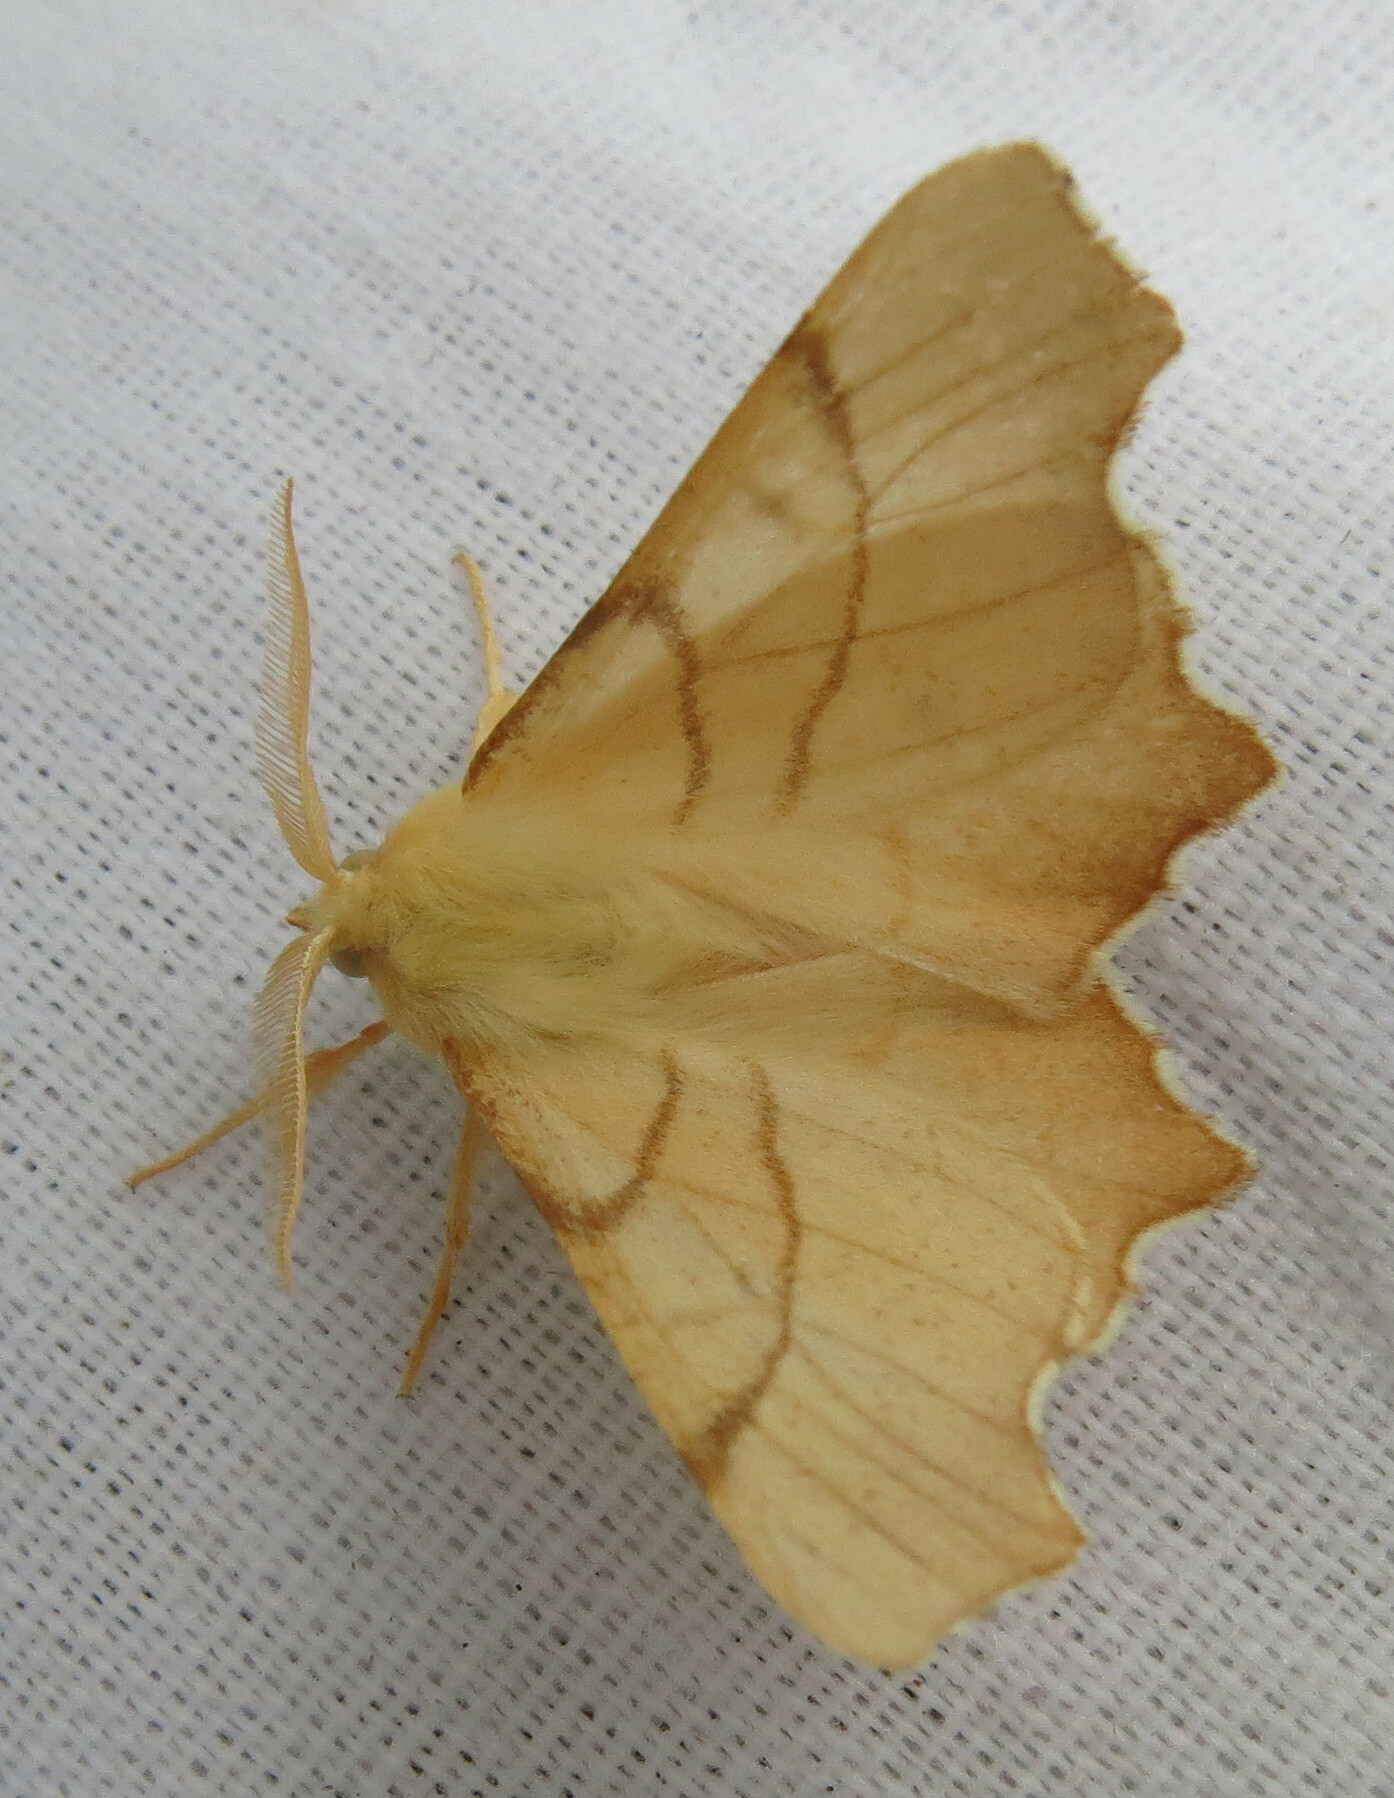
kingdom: Animalia
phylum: Arthropoda
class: Insecta
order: Lepidoptera
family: Geometridae
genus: Ennomos
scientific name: Ennomos erosaria
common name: September thorn
